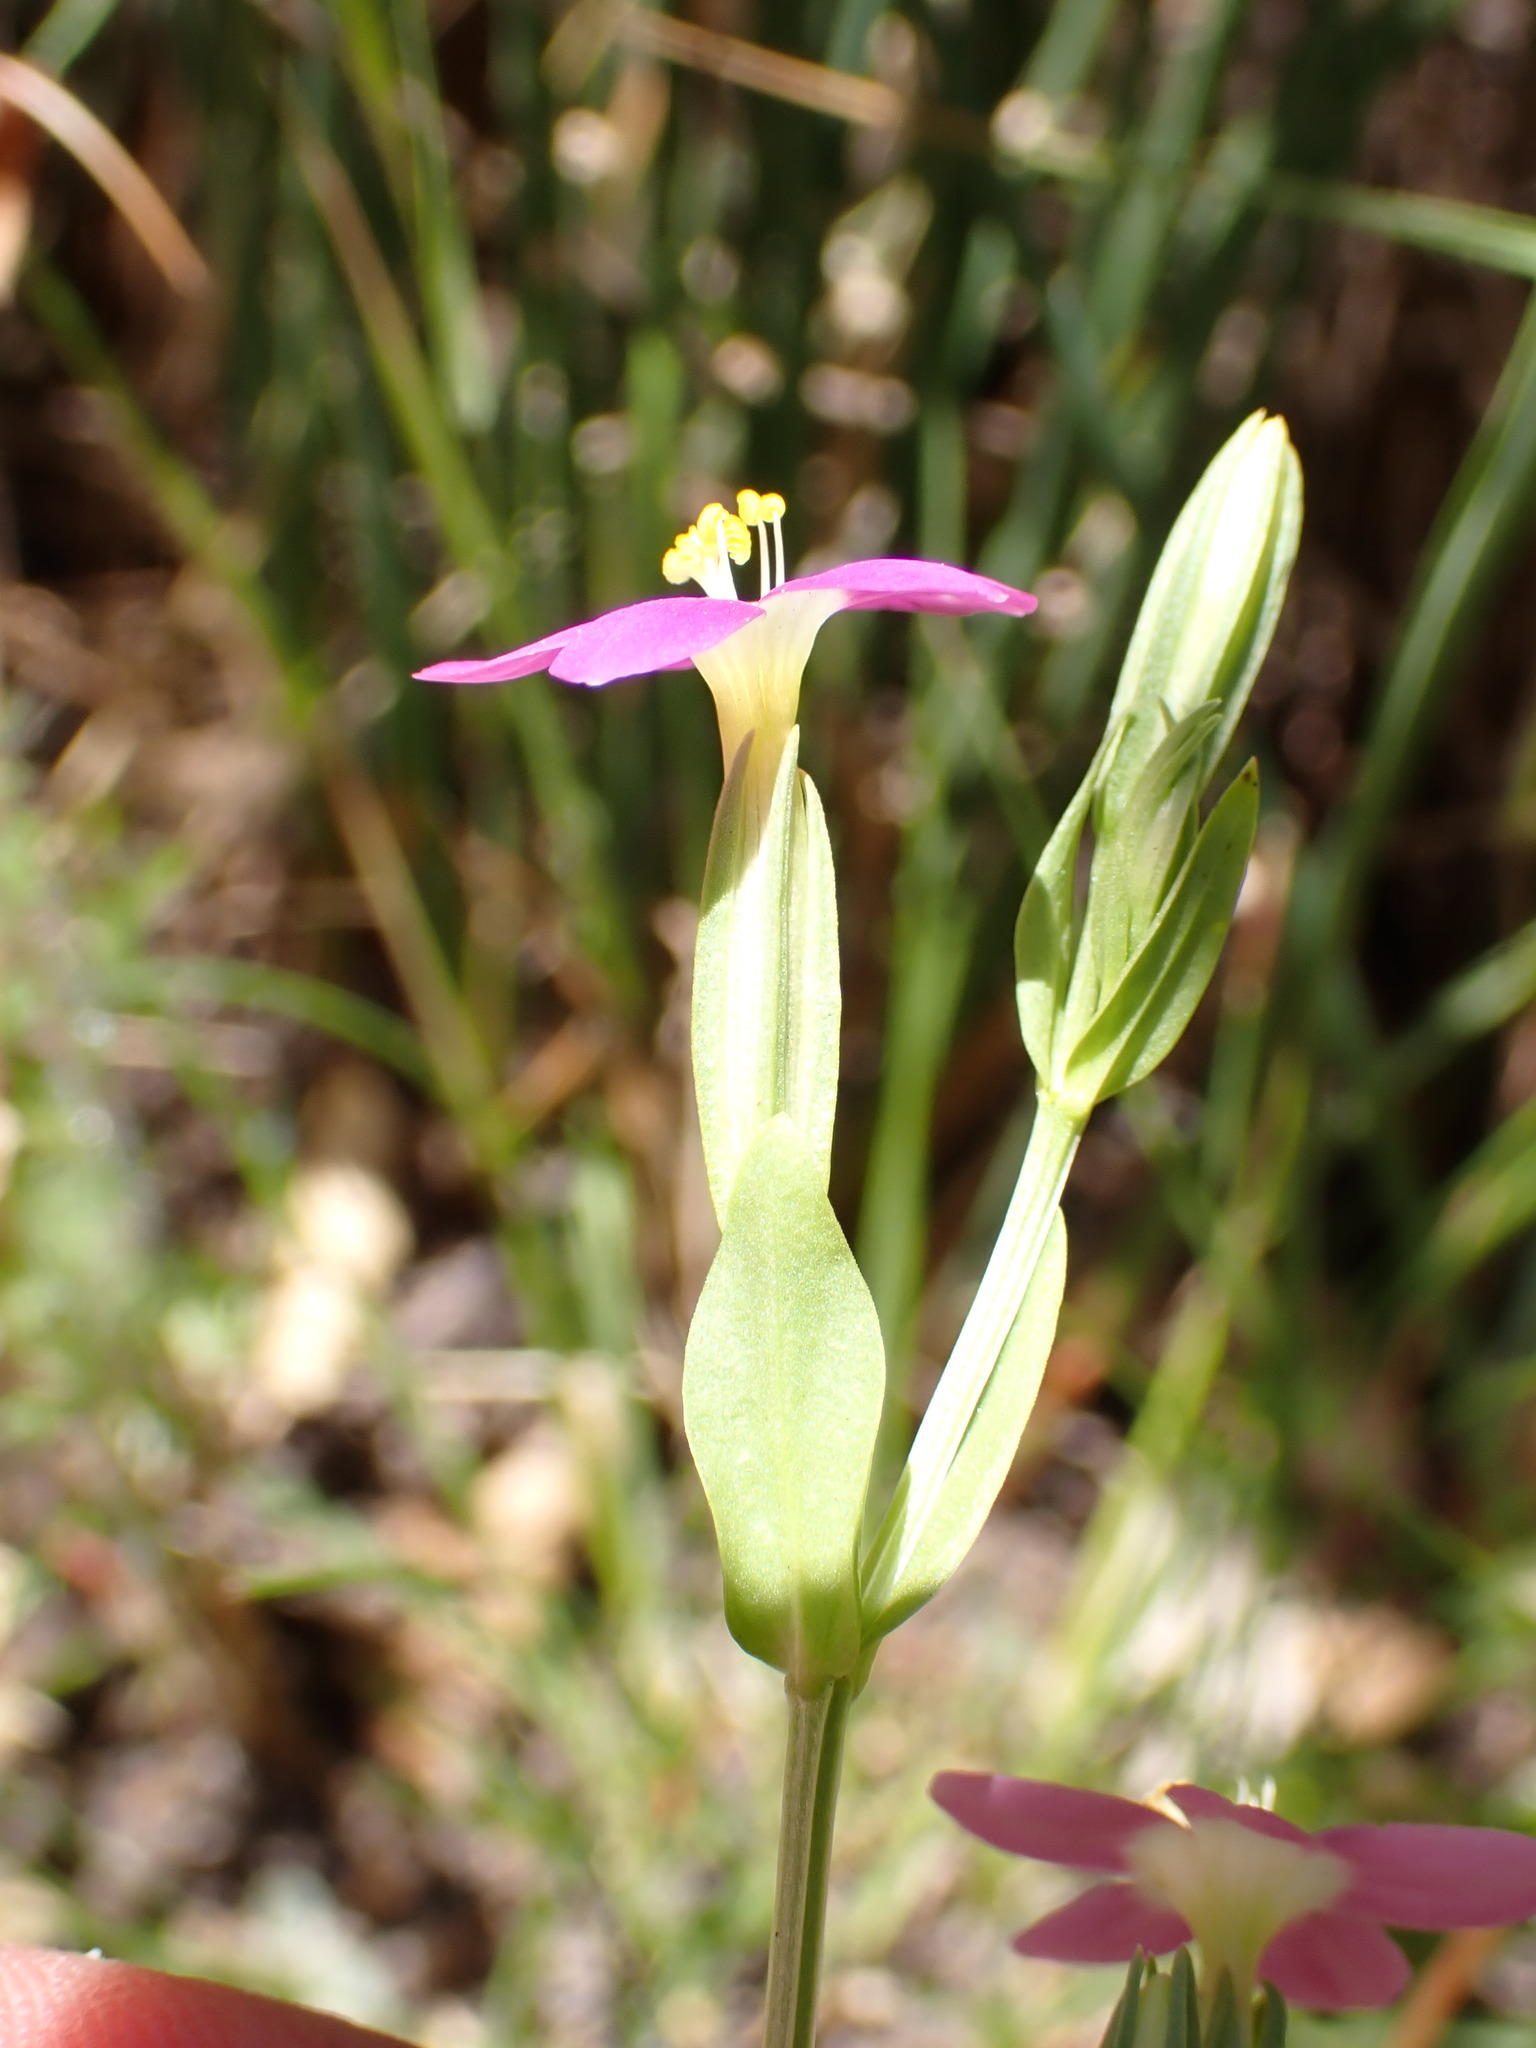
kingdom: Plantae
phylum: Tracheophyta
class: Magnoliopsida
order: Gentianales
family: Gentianaceae
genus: Zeltnera
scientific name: Zeltnera davyi
